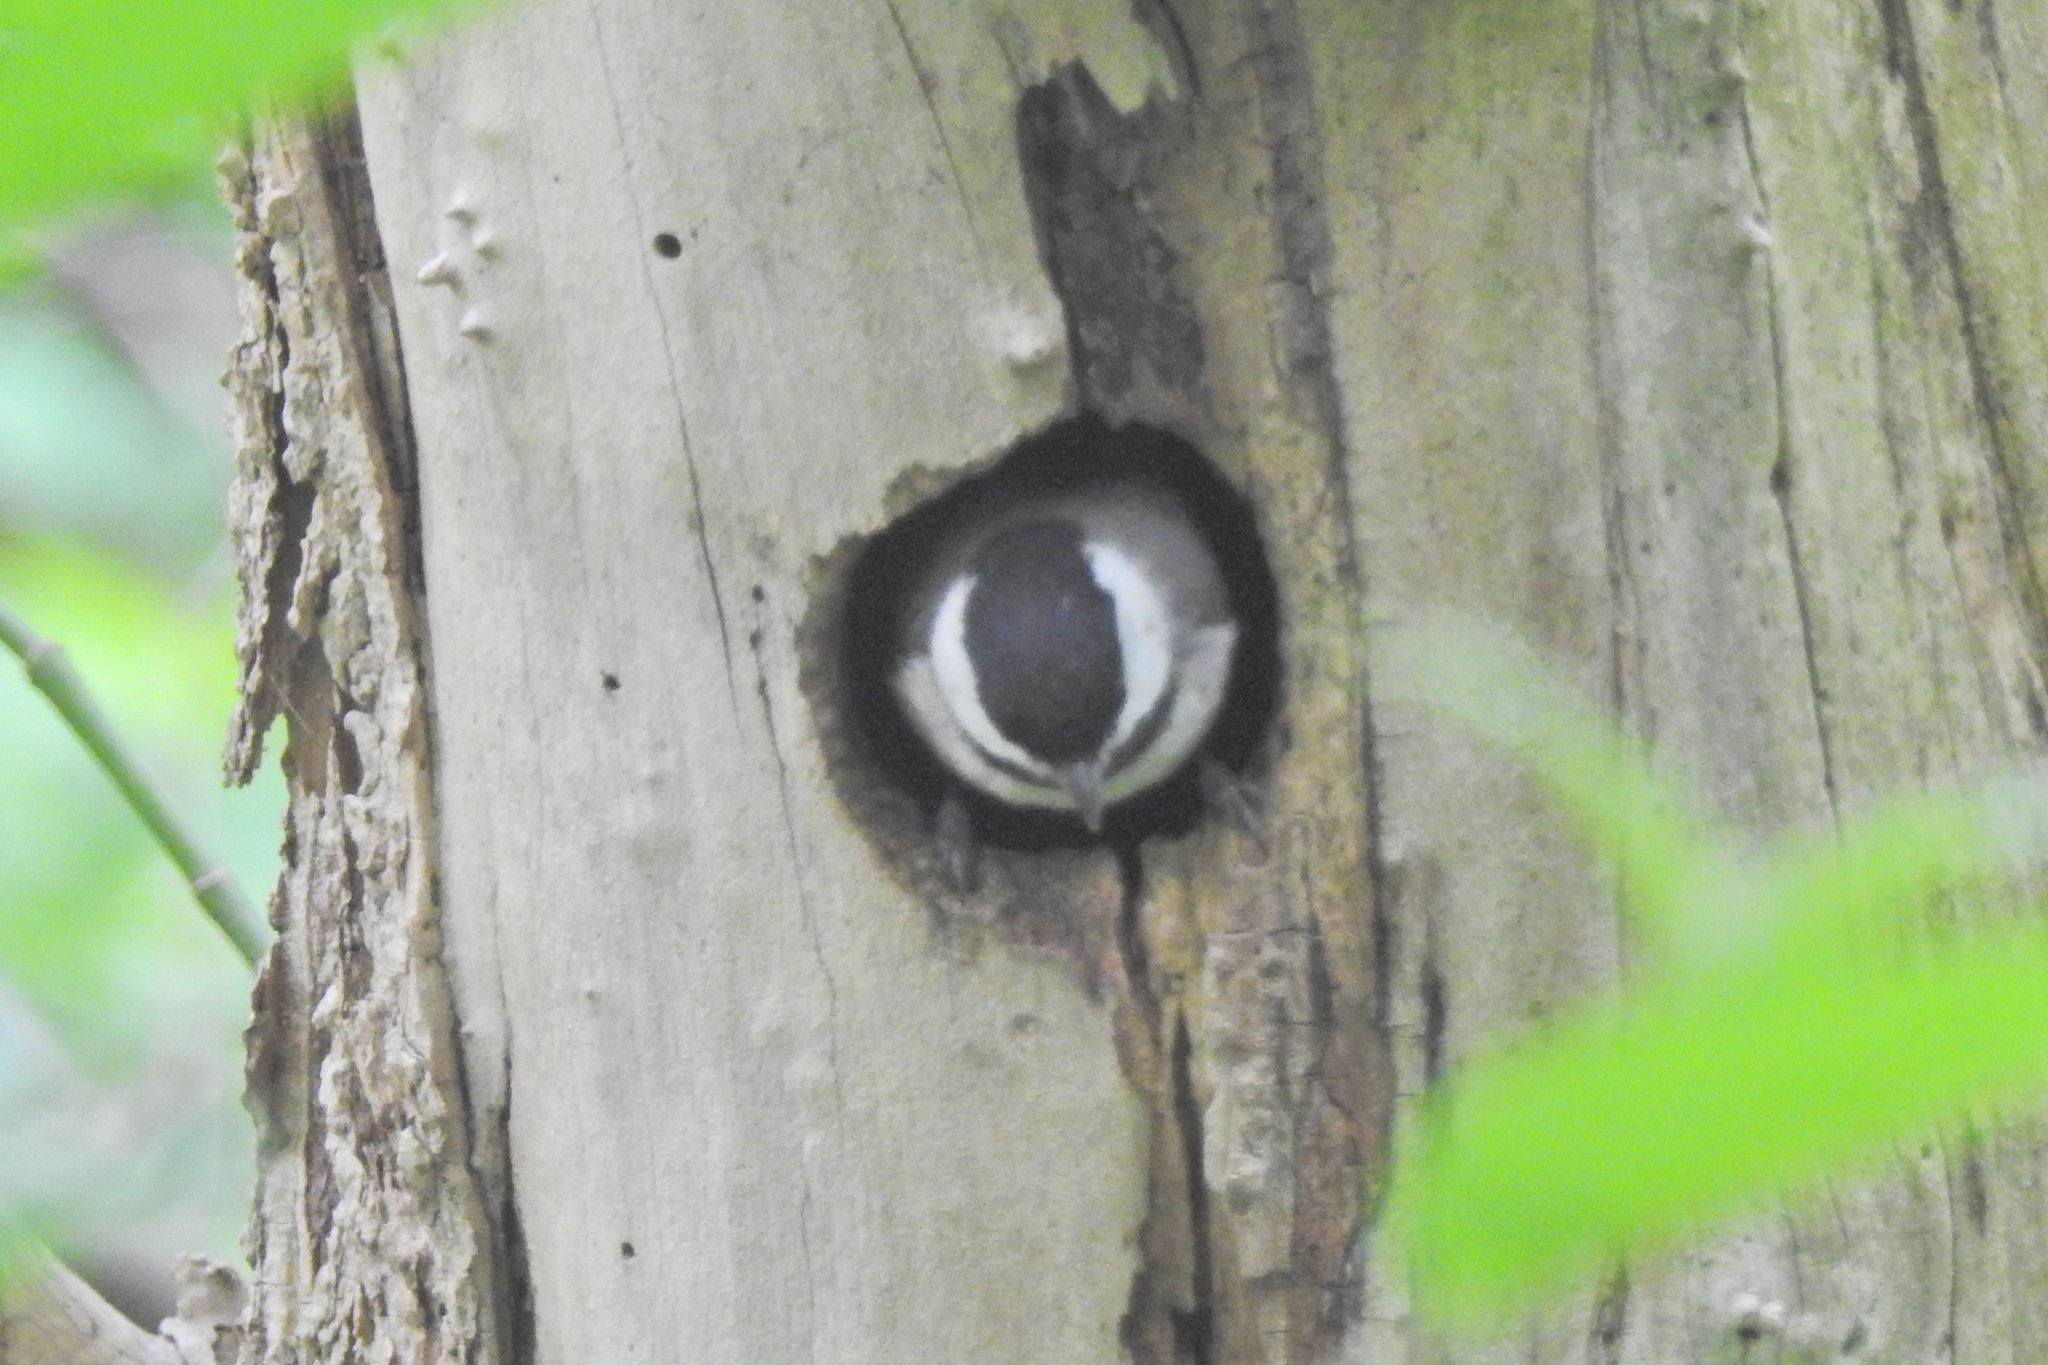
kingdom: Animalia
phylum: Chordata
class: Aves
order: Passeriformes
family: Paridae
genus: Poecile
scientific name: Poecile carolinensis
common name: Carolina chickadee
